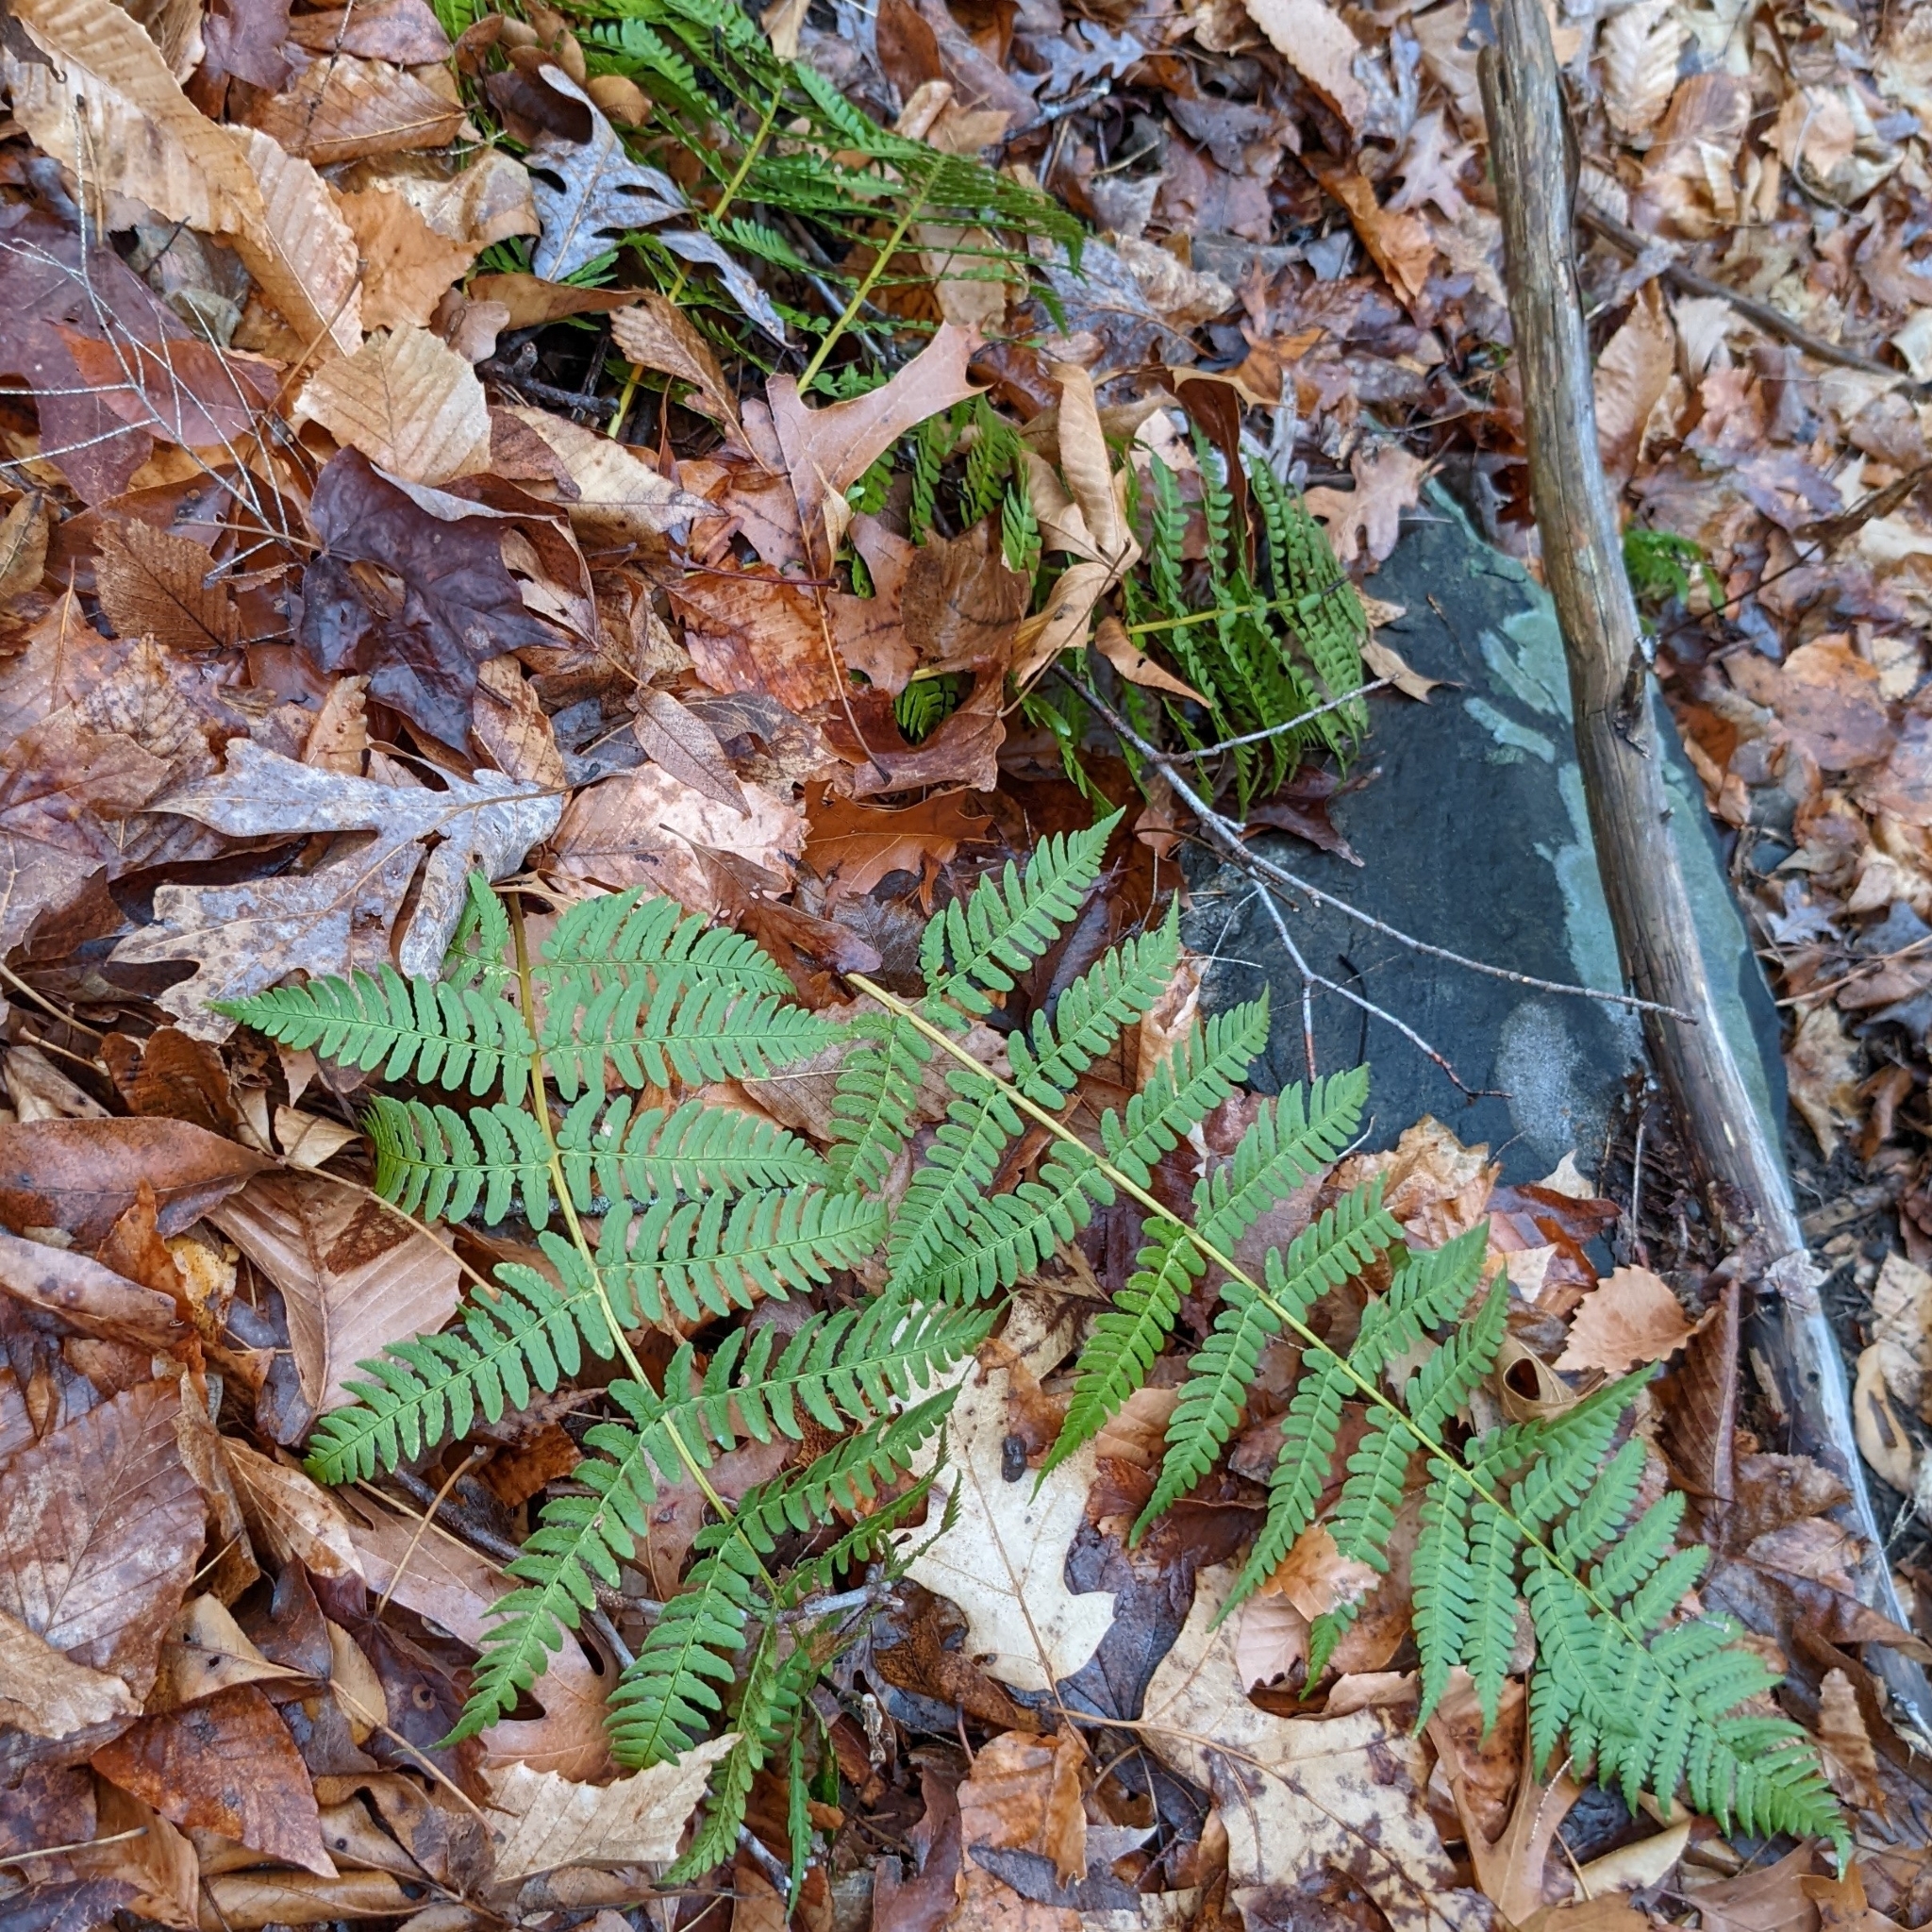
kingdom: Plantae
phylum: Tracheophyta
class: Polypodiopsida
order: Polypodiales
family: Dryopteridaceae
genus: Dryopteris
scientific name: Dryopteris marginalis
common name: Marginal wood fern
